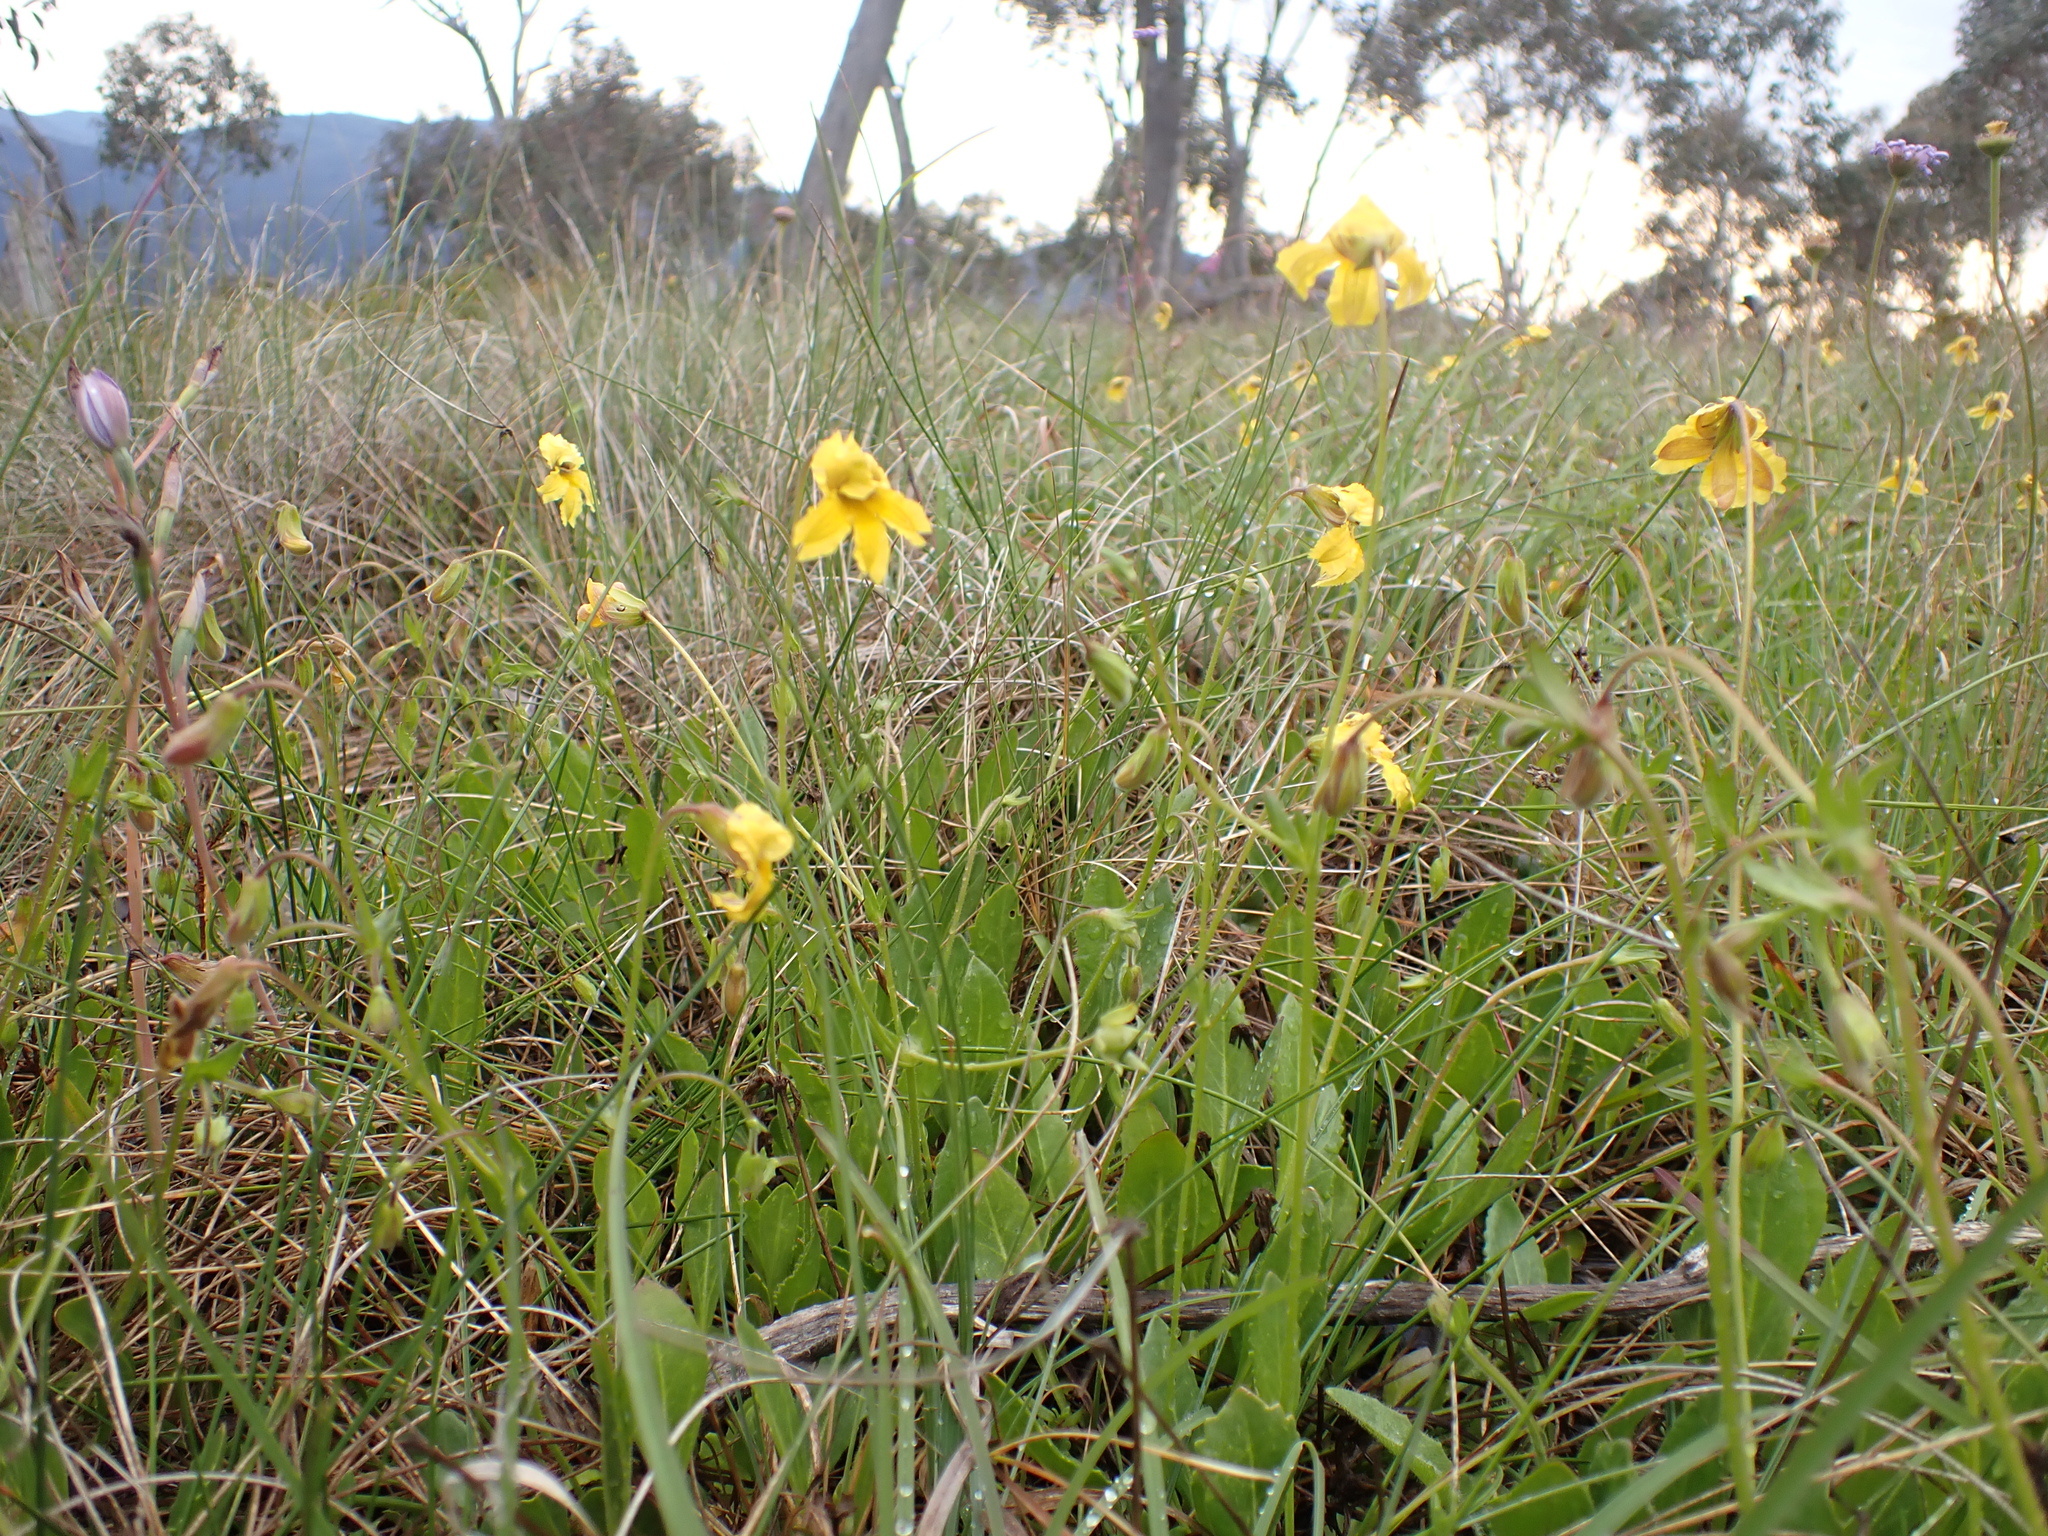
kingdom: Plantae
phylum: Tracheophyta
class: Magnoliopsida
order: Asterales
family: Goodeniaceae
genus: Goodenia
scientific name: Goodenia paradoxa
